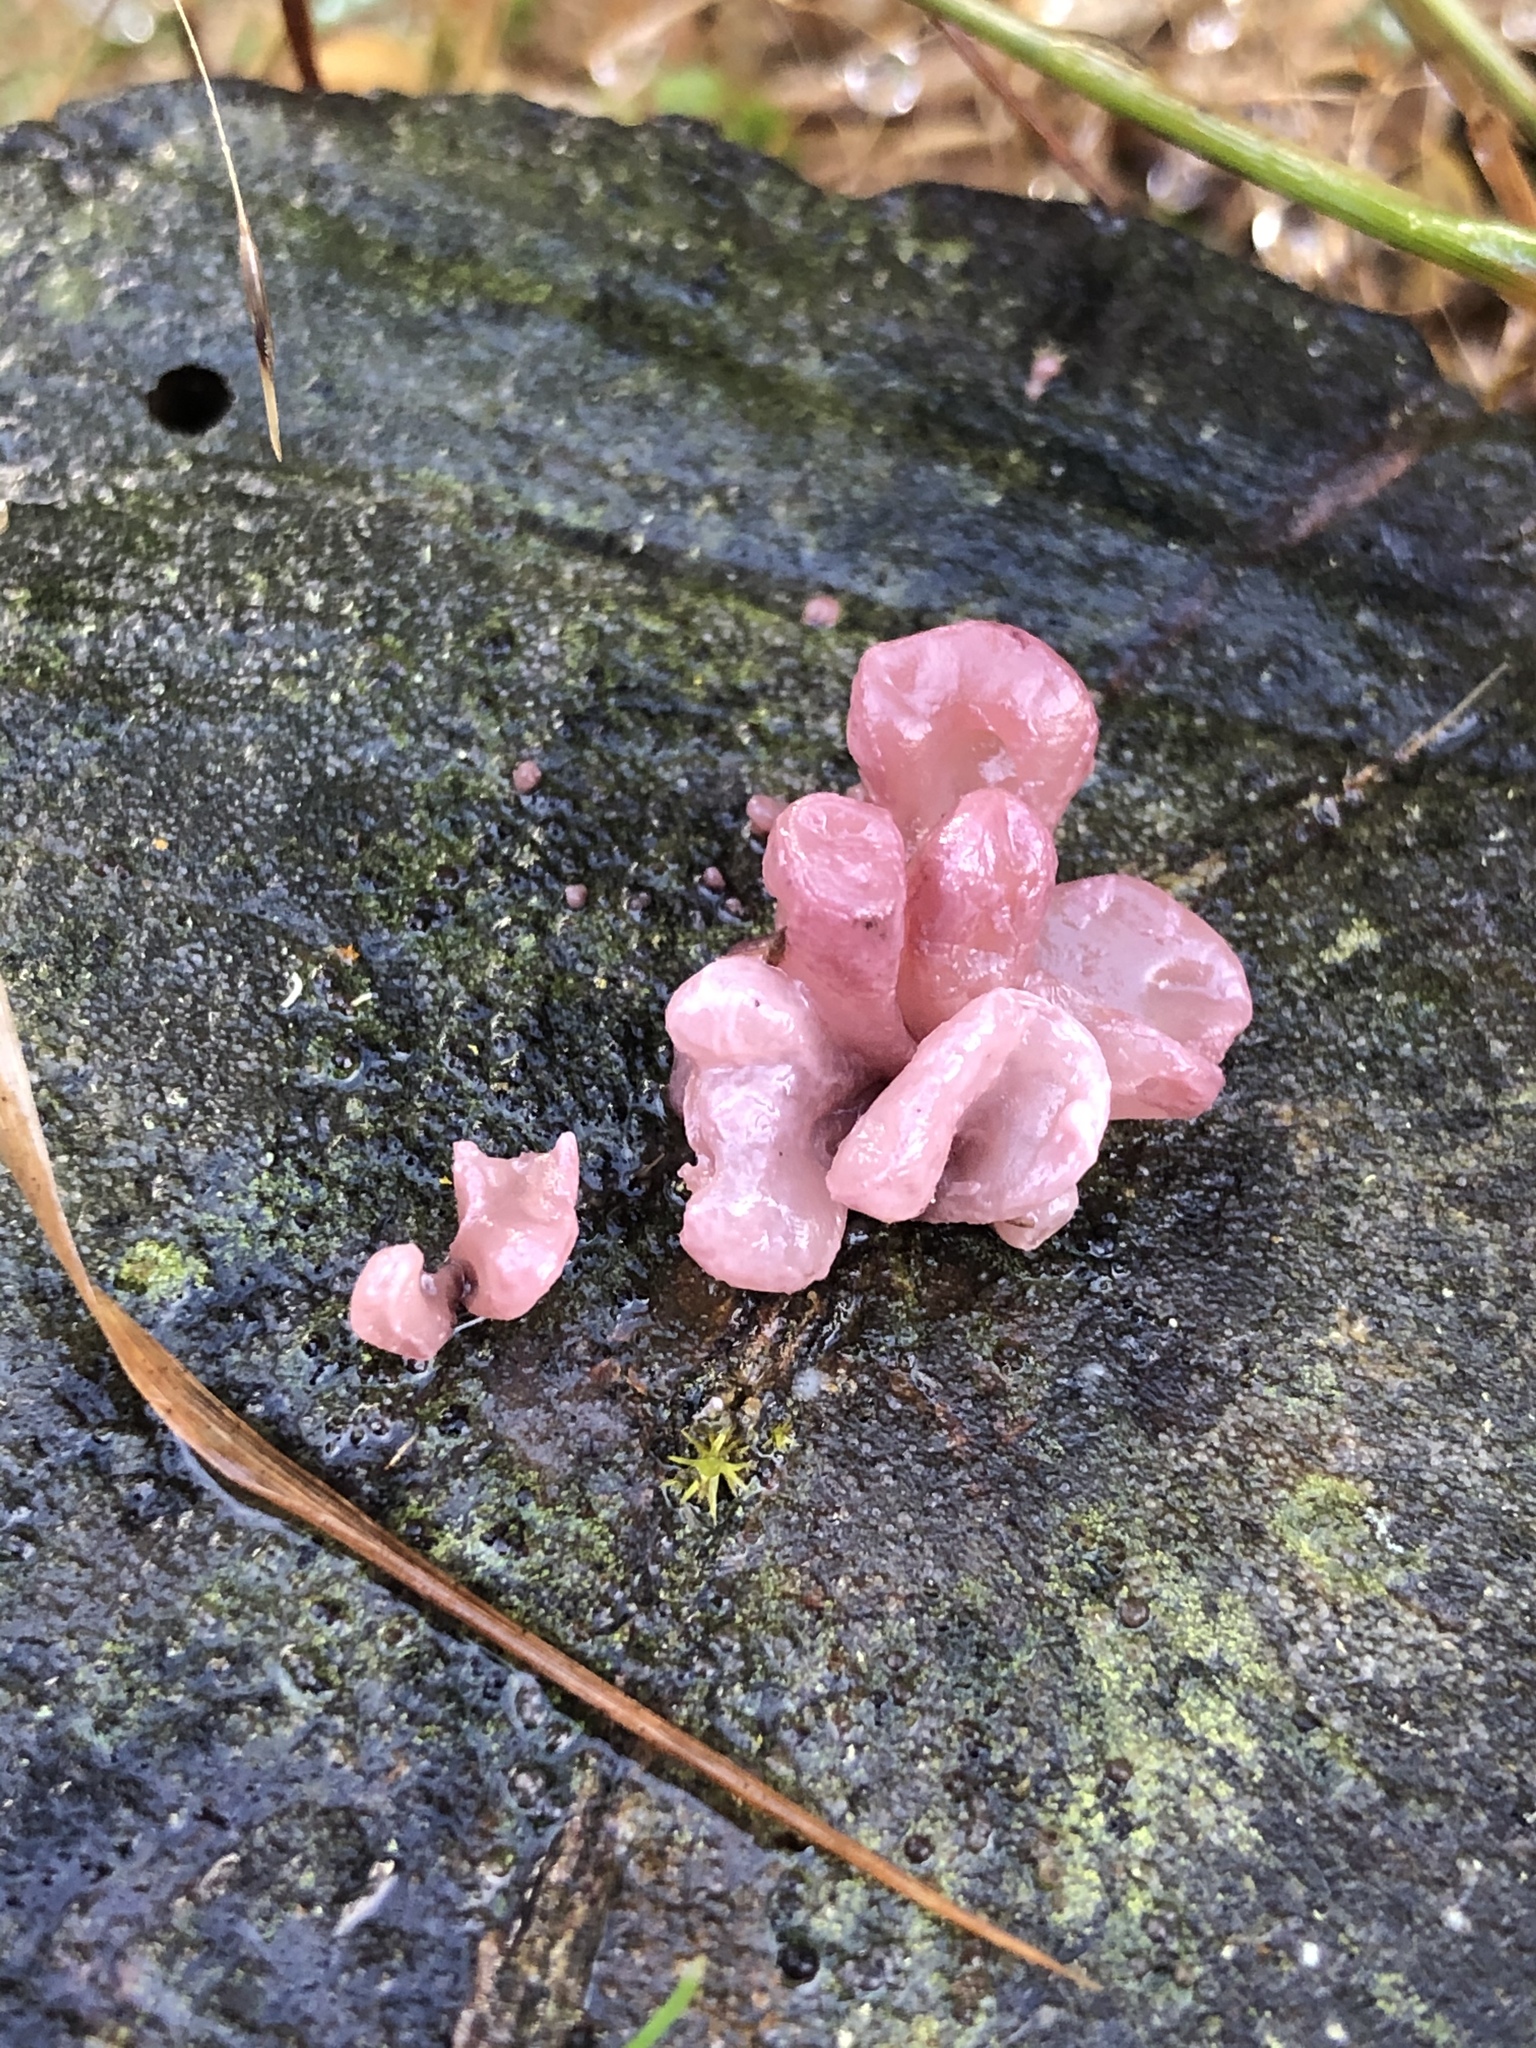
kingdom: Fungi
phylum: Ascomycota
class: Leotiomycetes
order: Helotiales
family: Gelatinodiscaceae
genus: Ascocoryne
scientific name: Ascocoryne sarcoides
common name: Purple jellydisc
